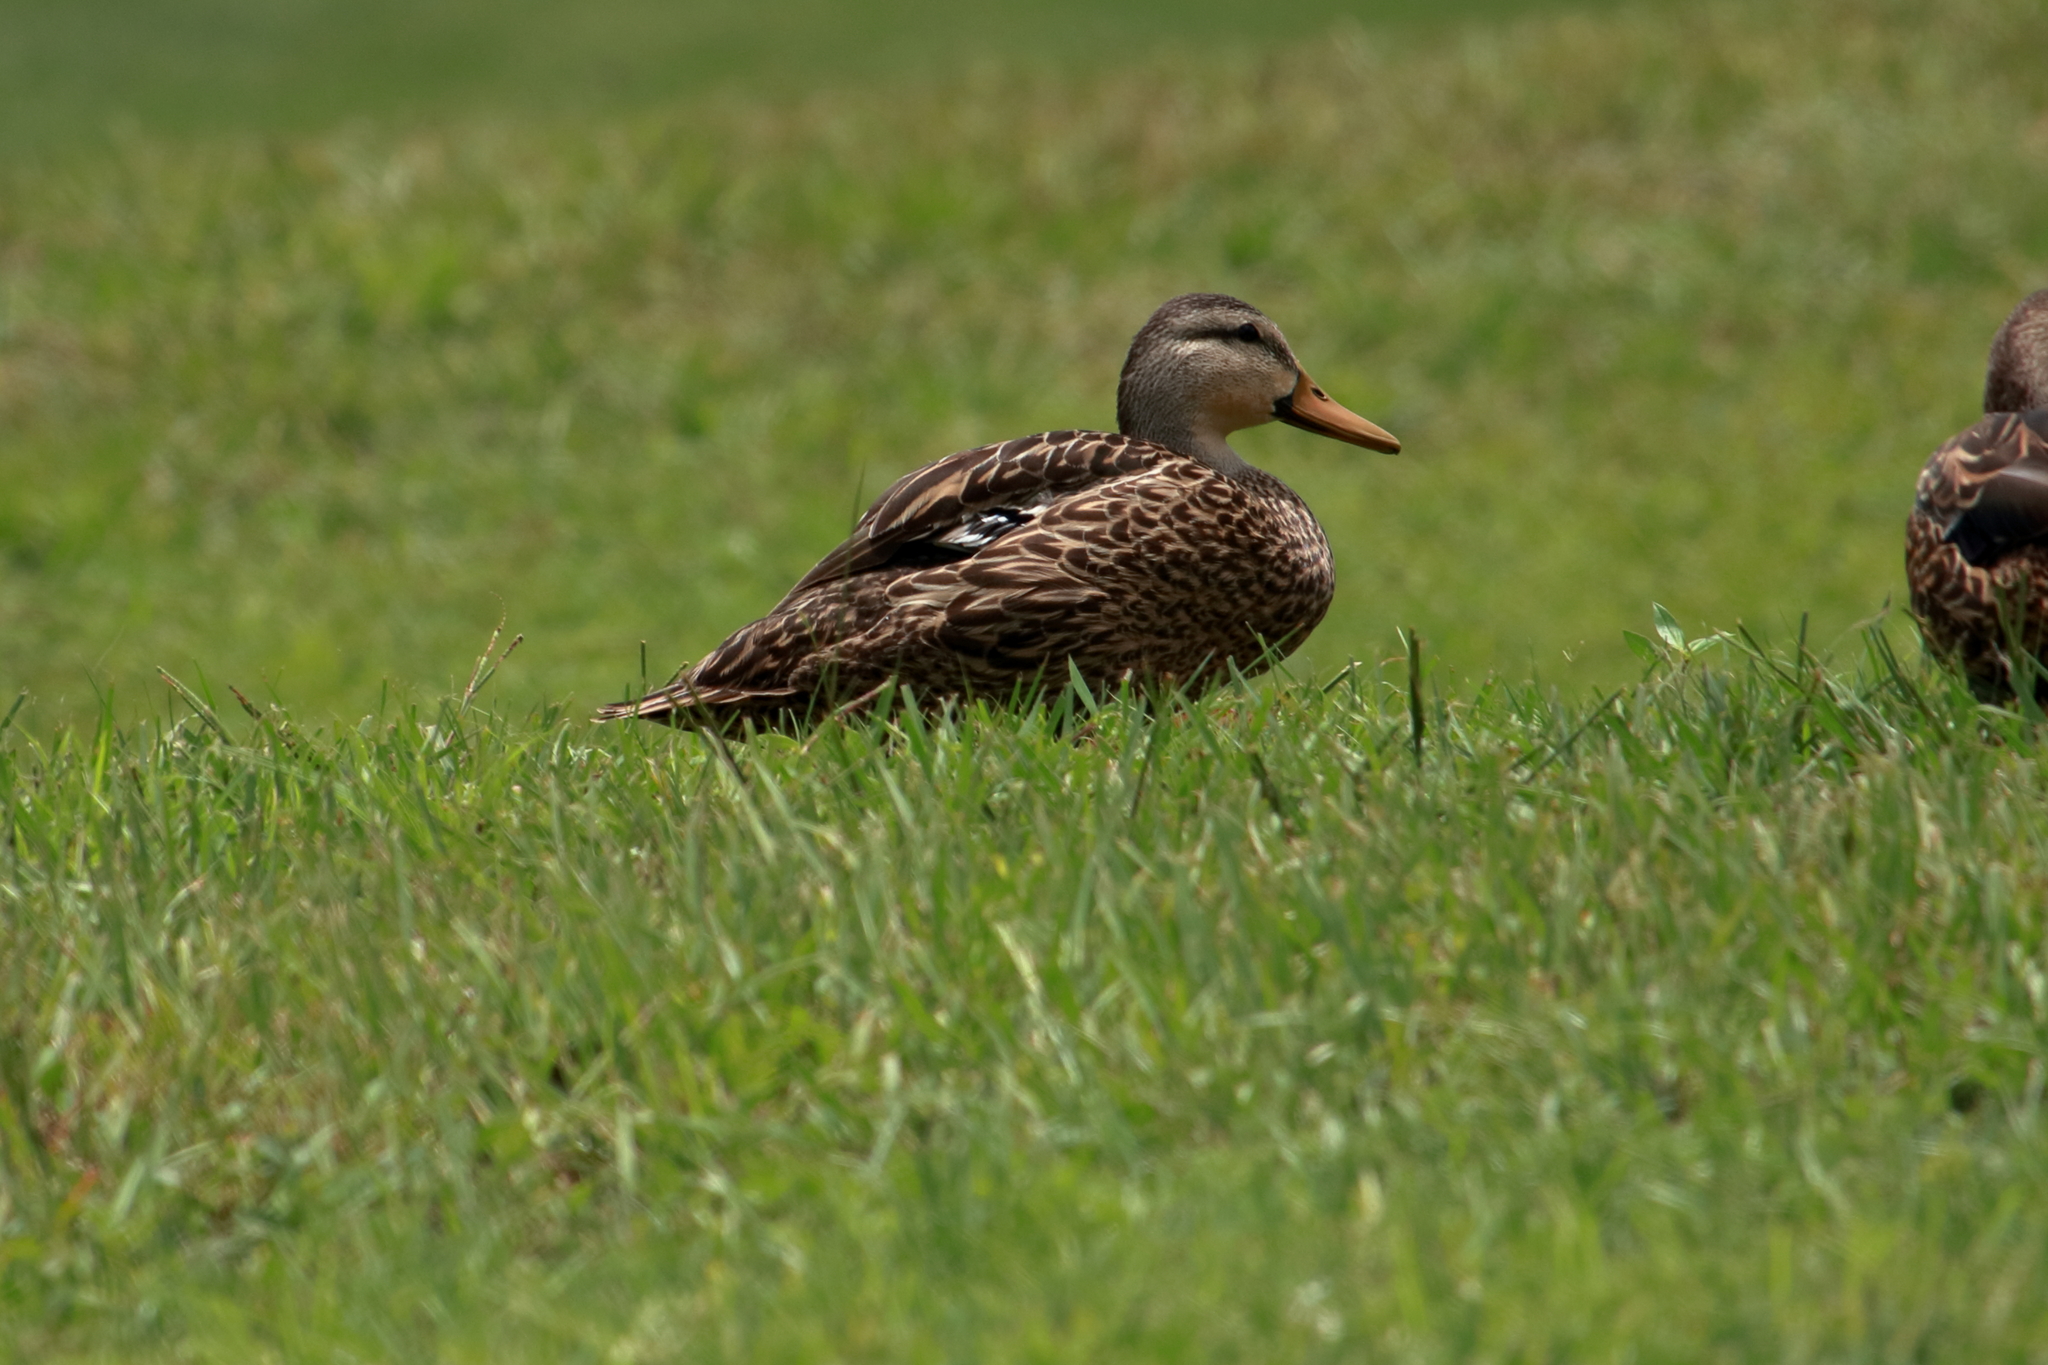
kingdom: Animalia
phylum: Chordata
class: Aves
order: Anseriformes
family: Anatidae
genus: Anas
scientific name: Anas fulvigula
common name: Mottled duck
